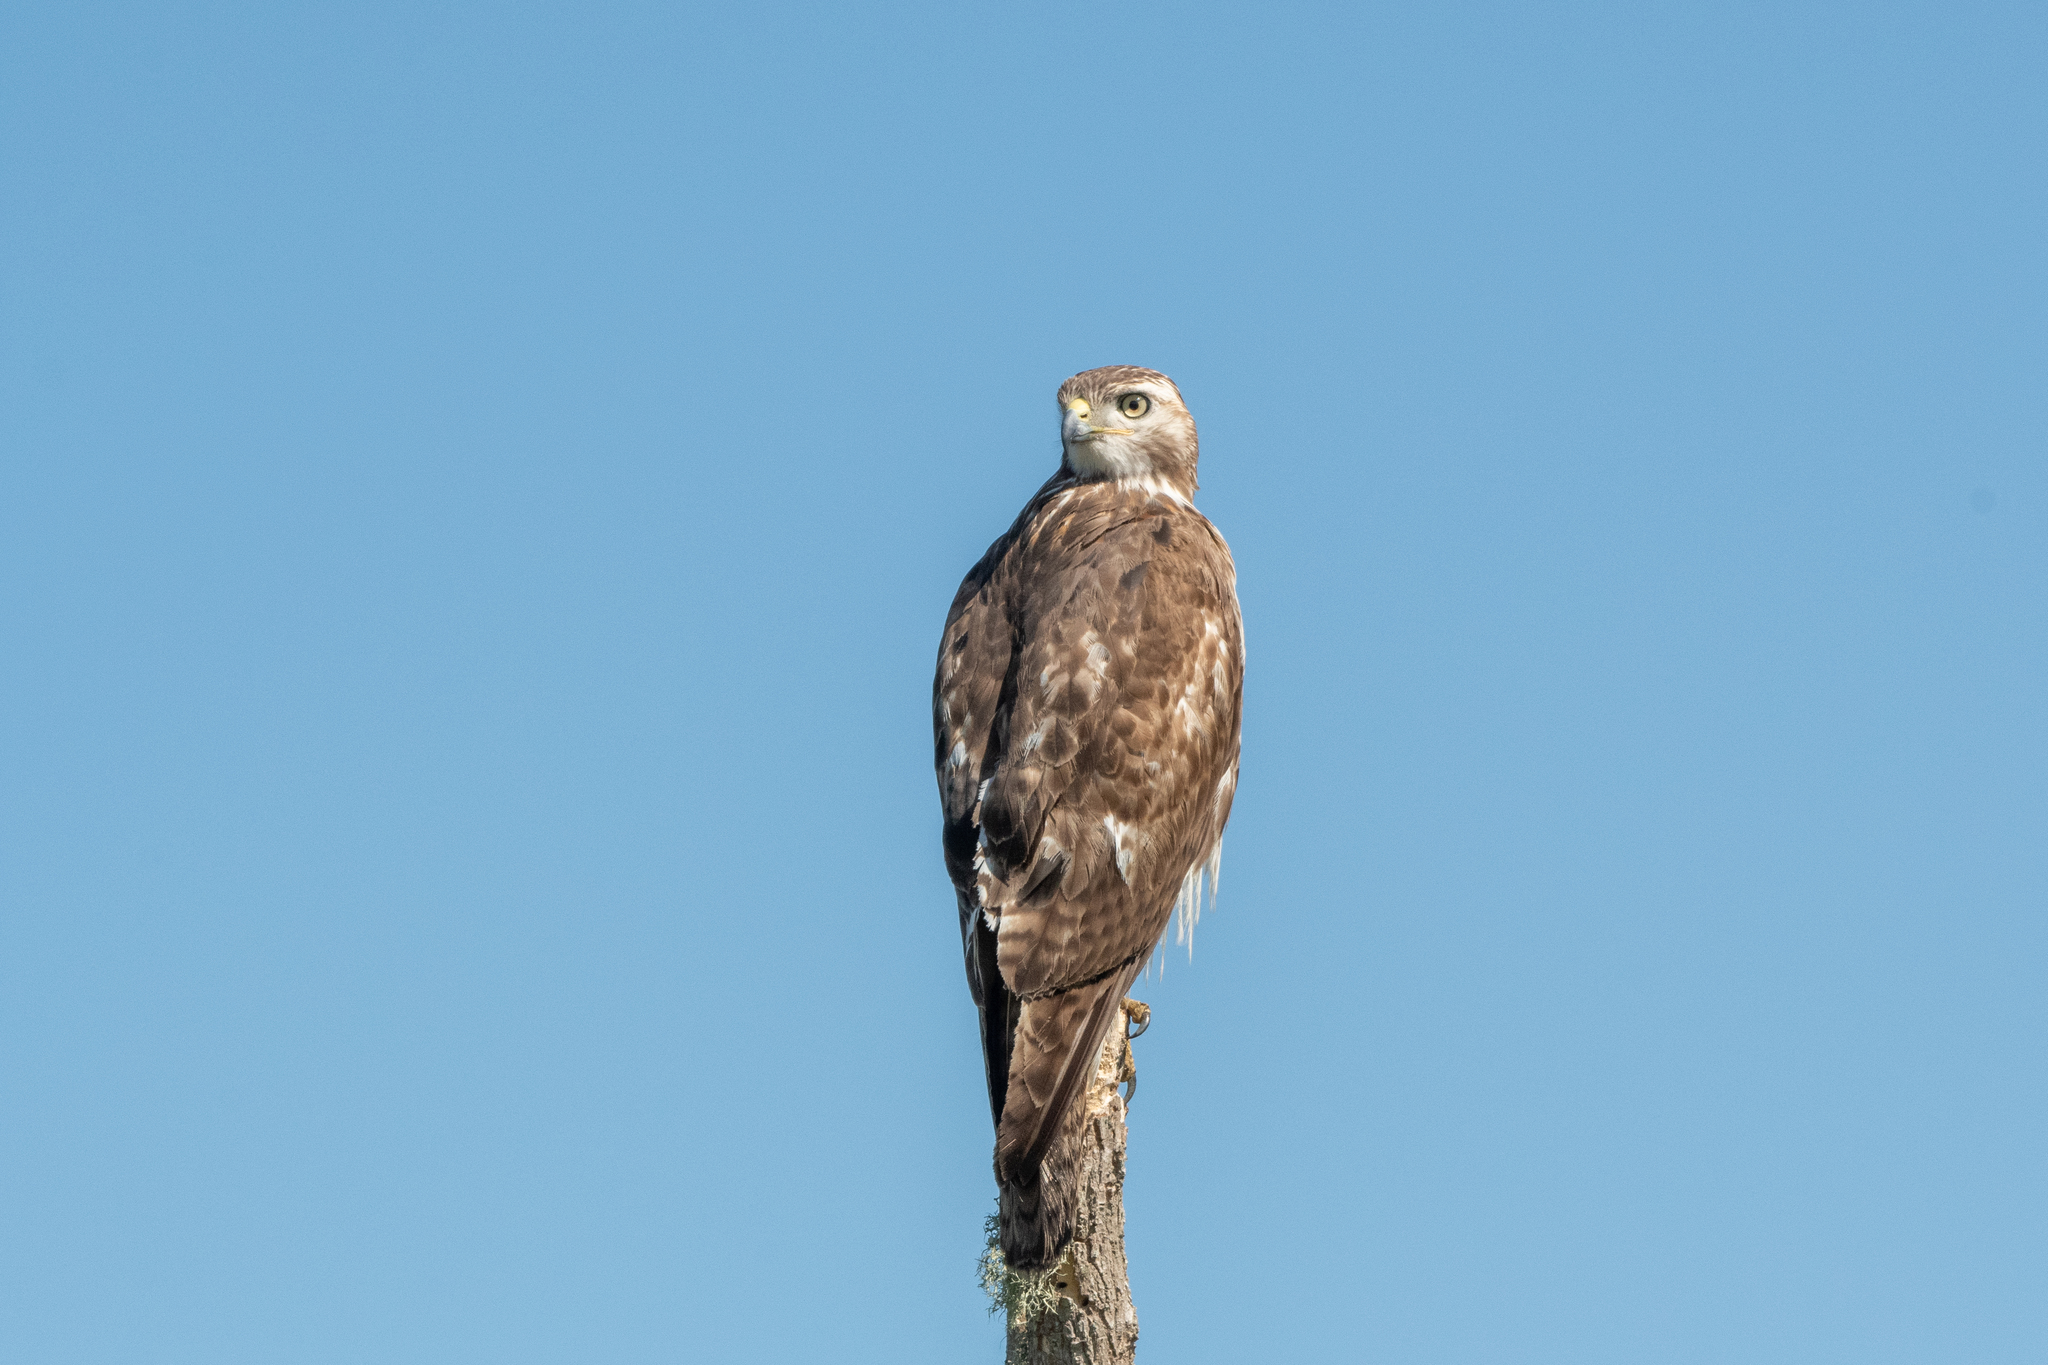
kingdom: Animalia
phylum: Chordata
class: Aves
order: Accipitriformes
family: Accipitridae
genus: Buteo
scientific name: Buteo jamaicensis
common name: Red-tailed hawk
